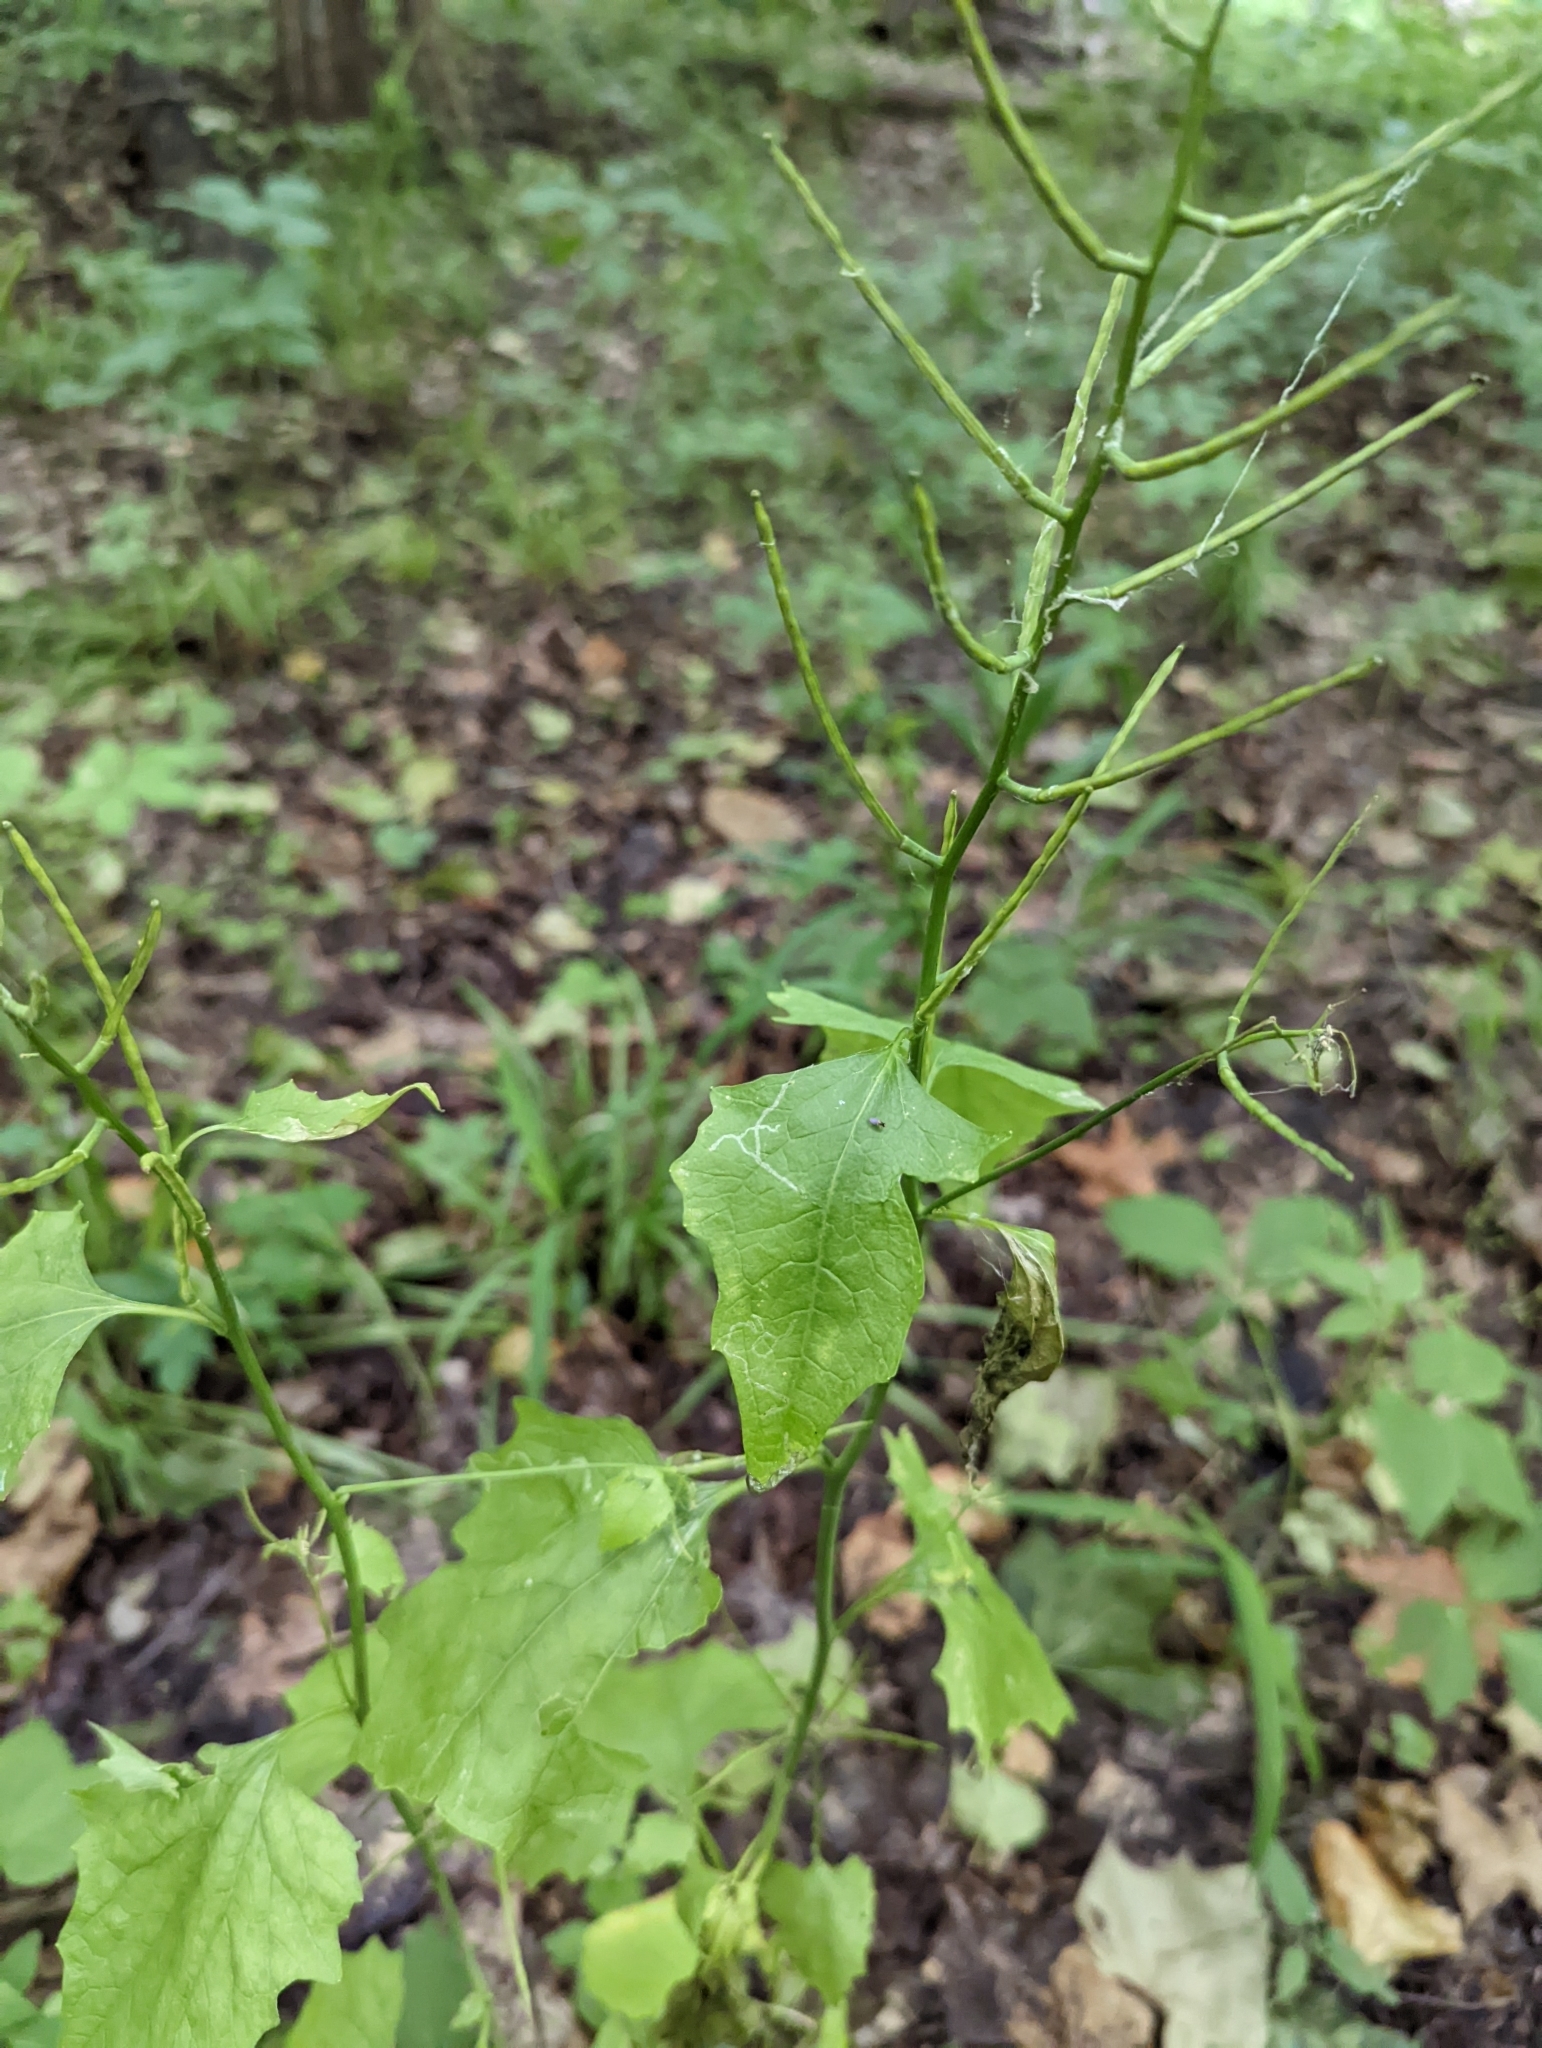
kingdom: Plantae
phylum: Tracheophyta
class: Magnoliopsida
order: Brassicales
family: Brassicaceae
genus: Alliaria
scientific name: Alliaria petiolata
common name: Garlic mustard
